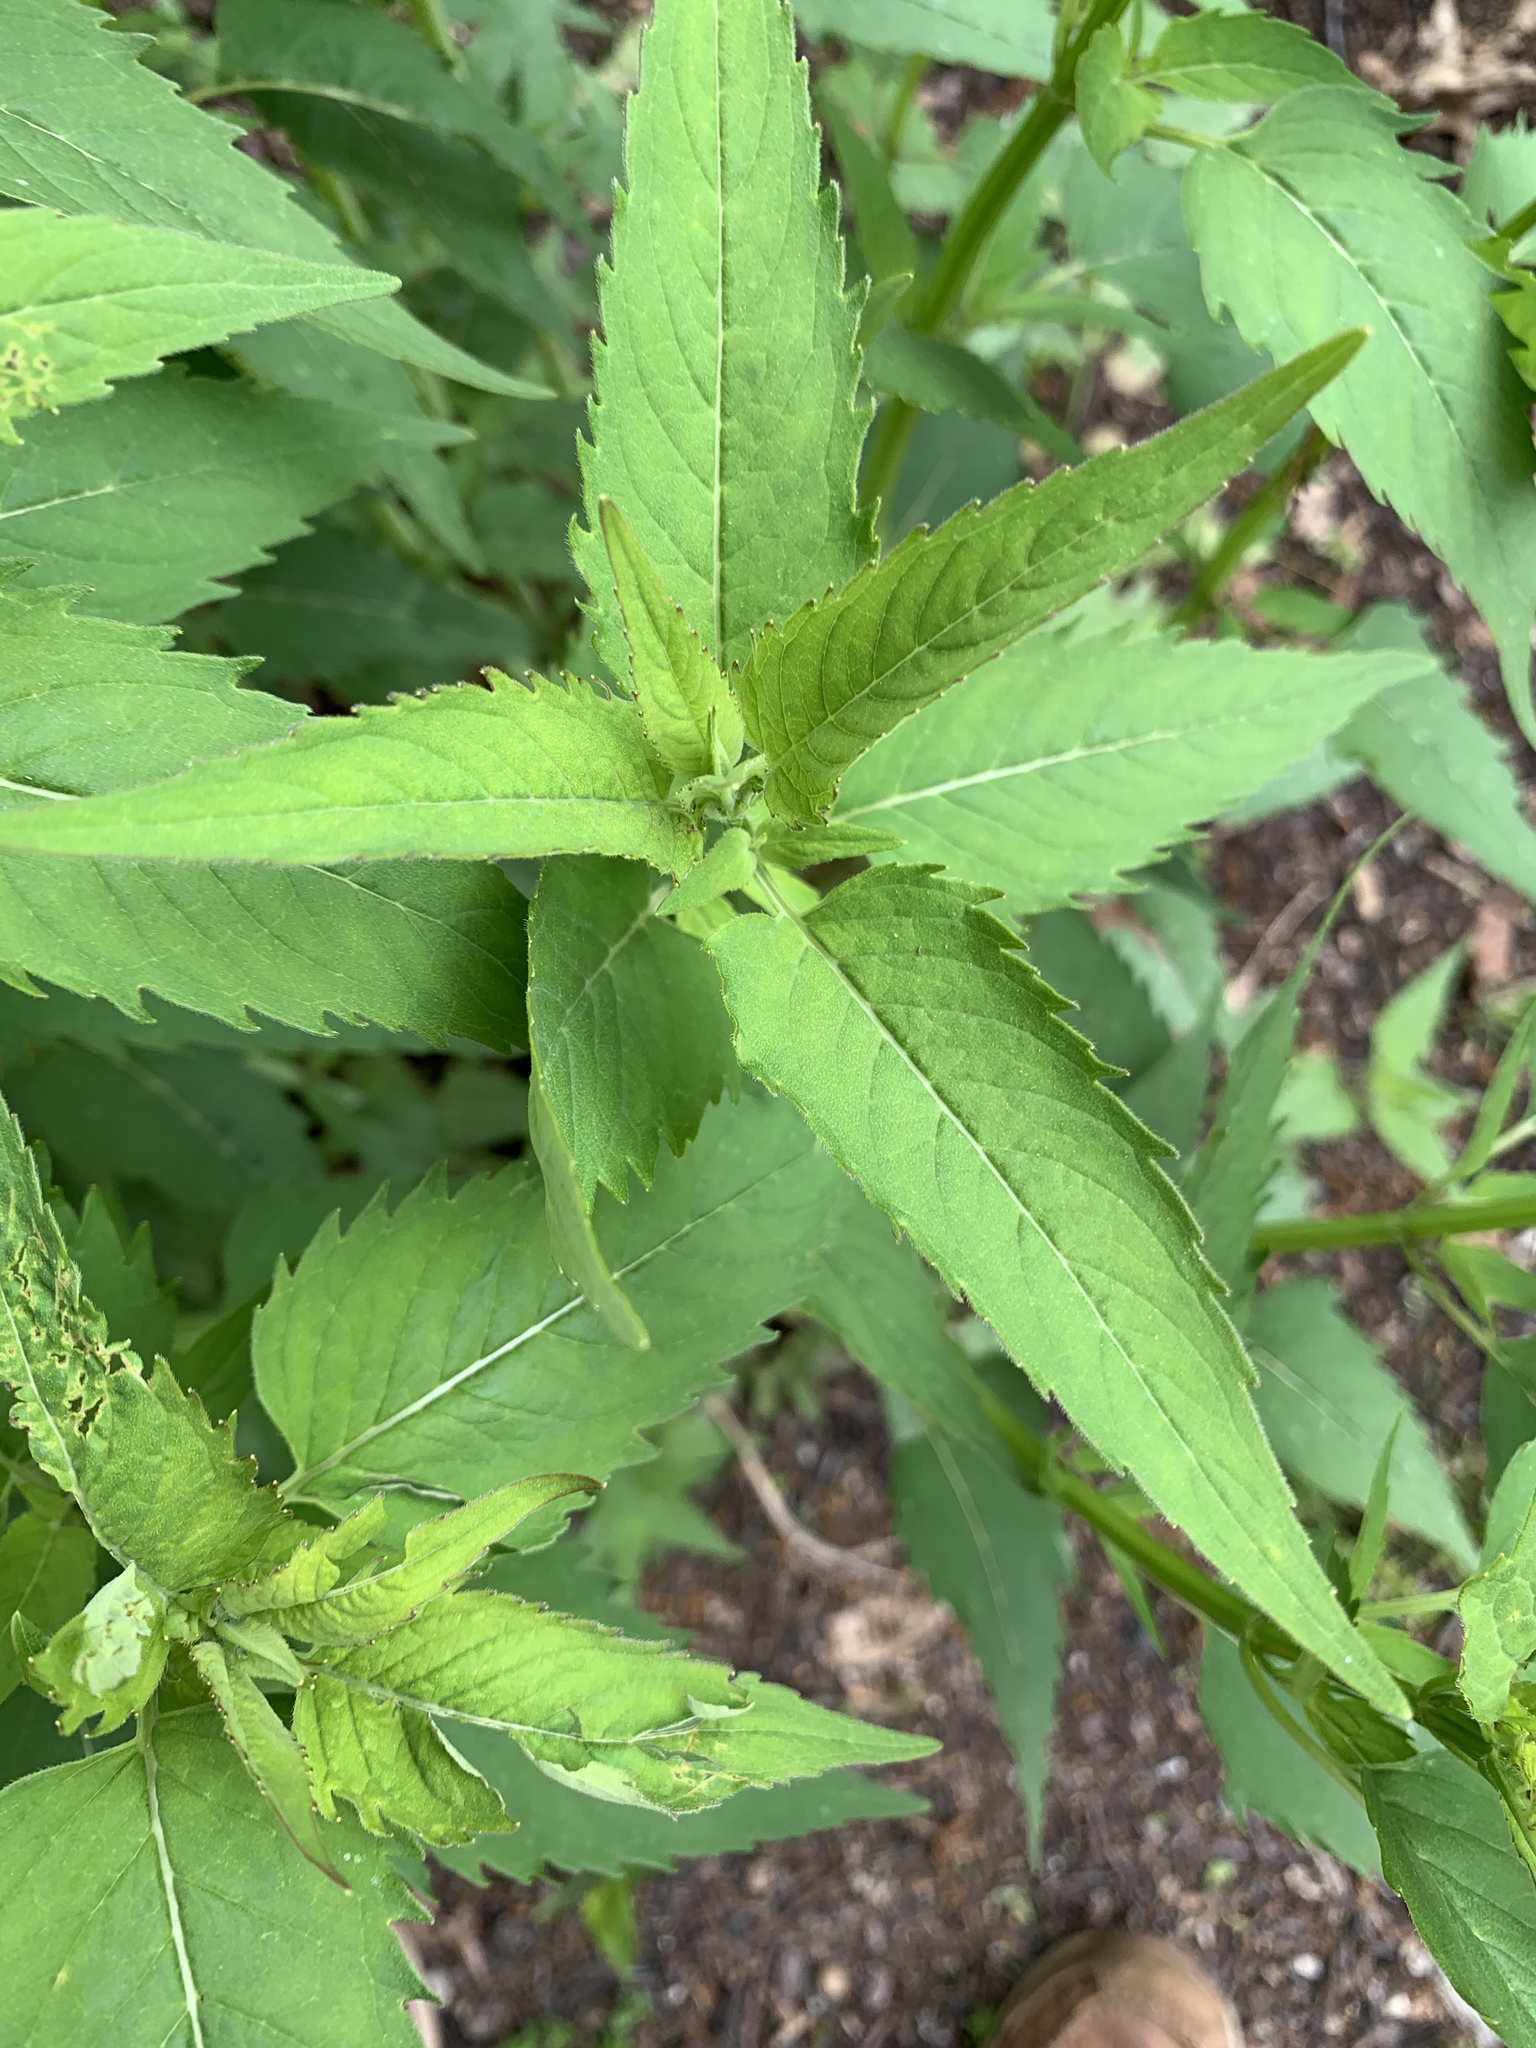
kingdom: Plantae
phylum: Tracheophyta
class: Magnoliopsida
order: Lamiales
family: Lamiaceae
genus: Monarda
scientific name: Monarda fistulosa
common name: Purple beebalm
